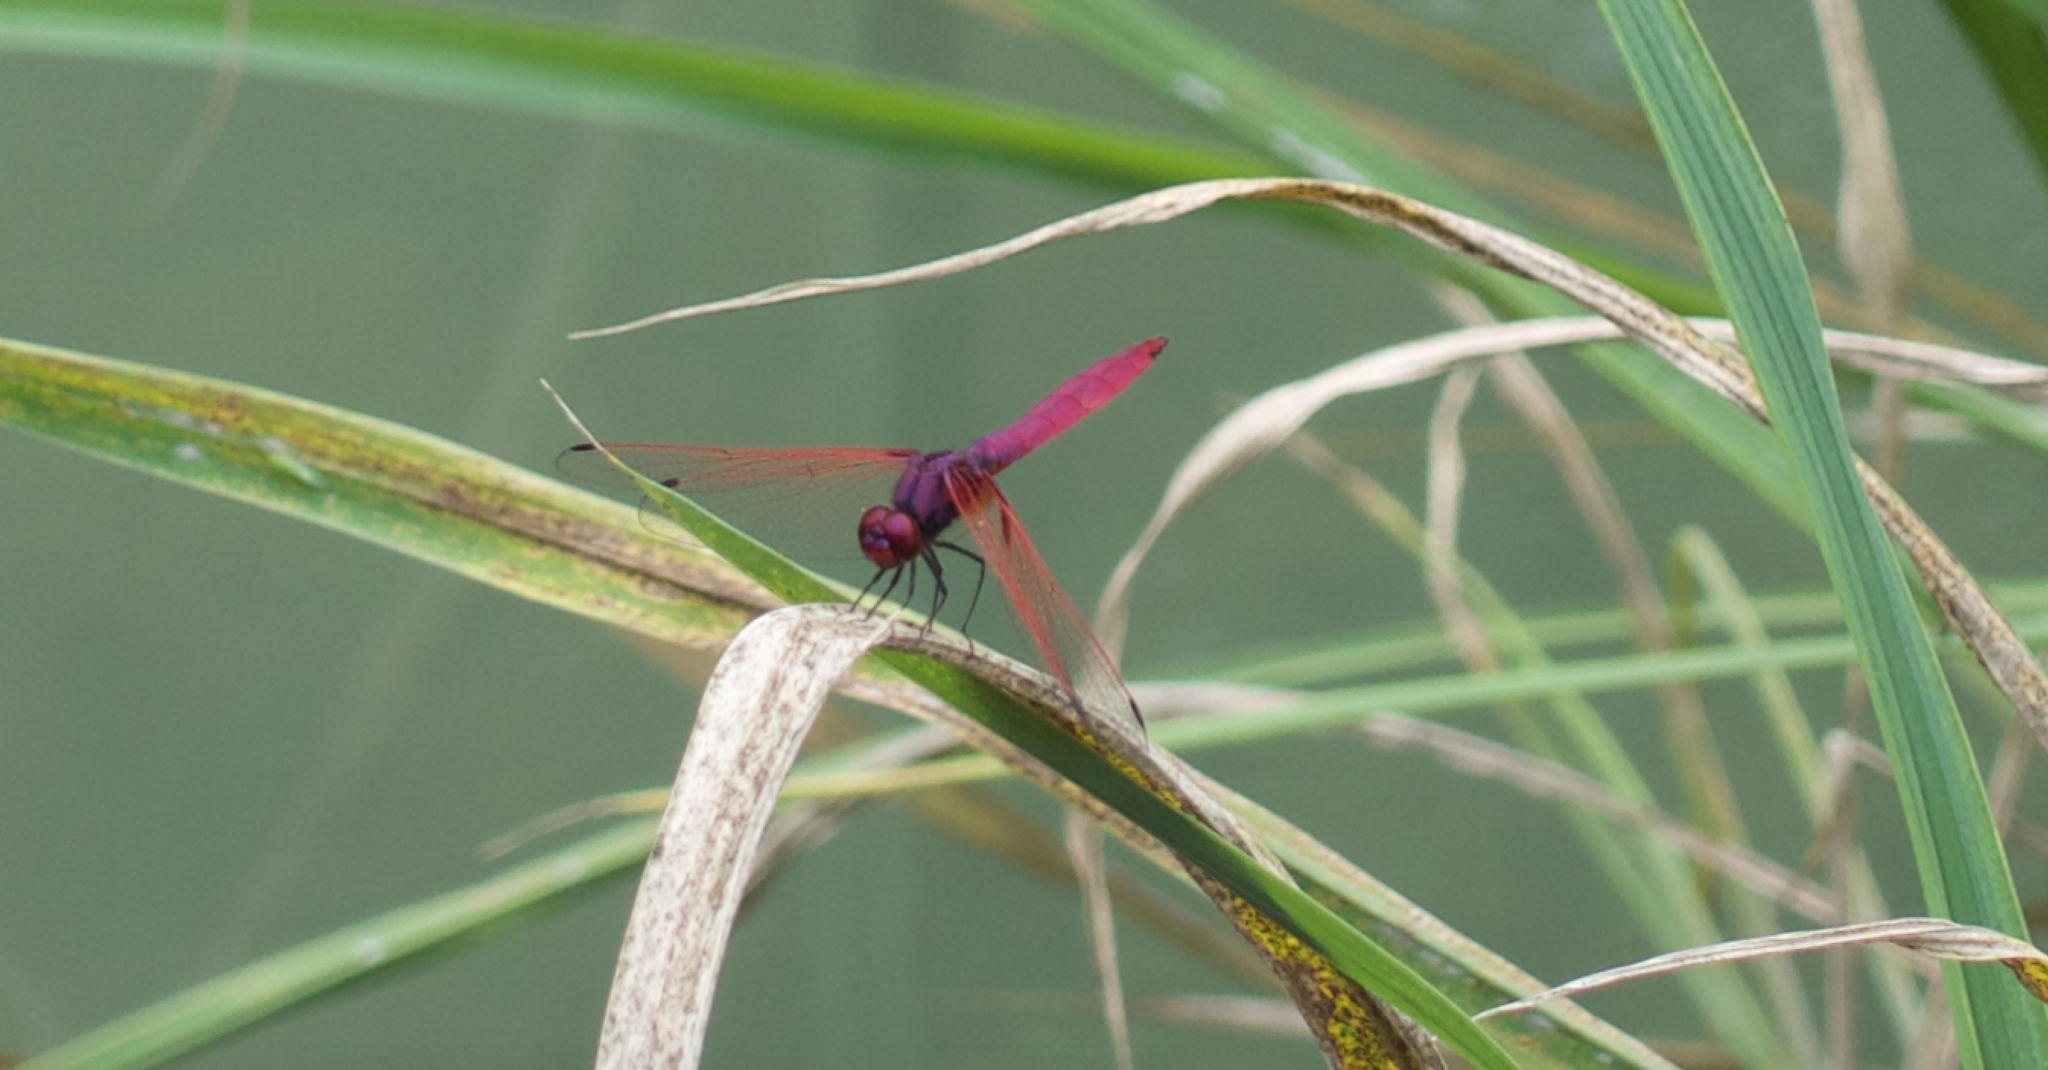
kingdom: Animalia
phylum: Arthropoda
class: Insecta
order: Odonata
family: Libellulidae
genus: Trithemis
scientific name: Trithemis aurora
